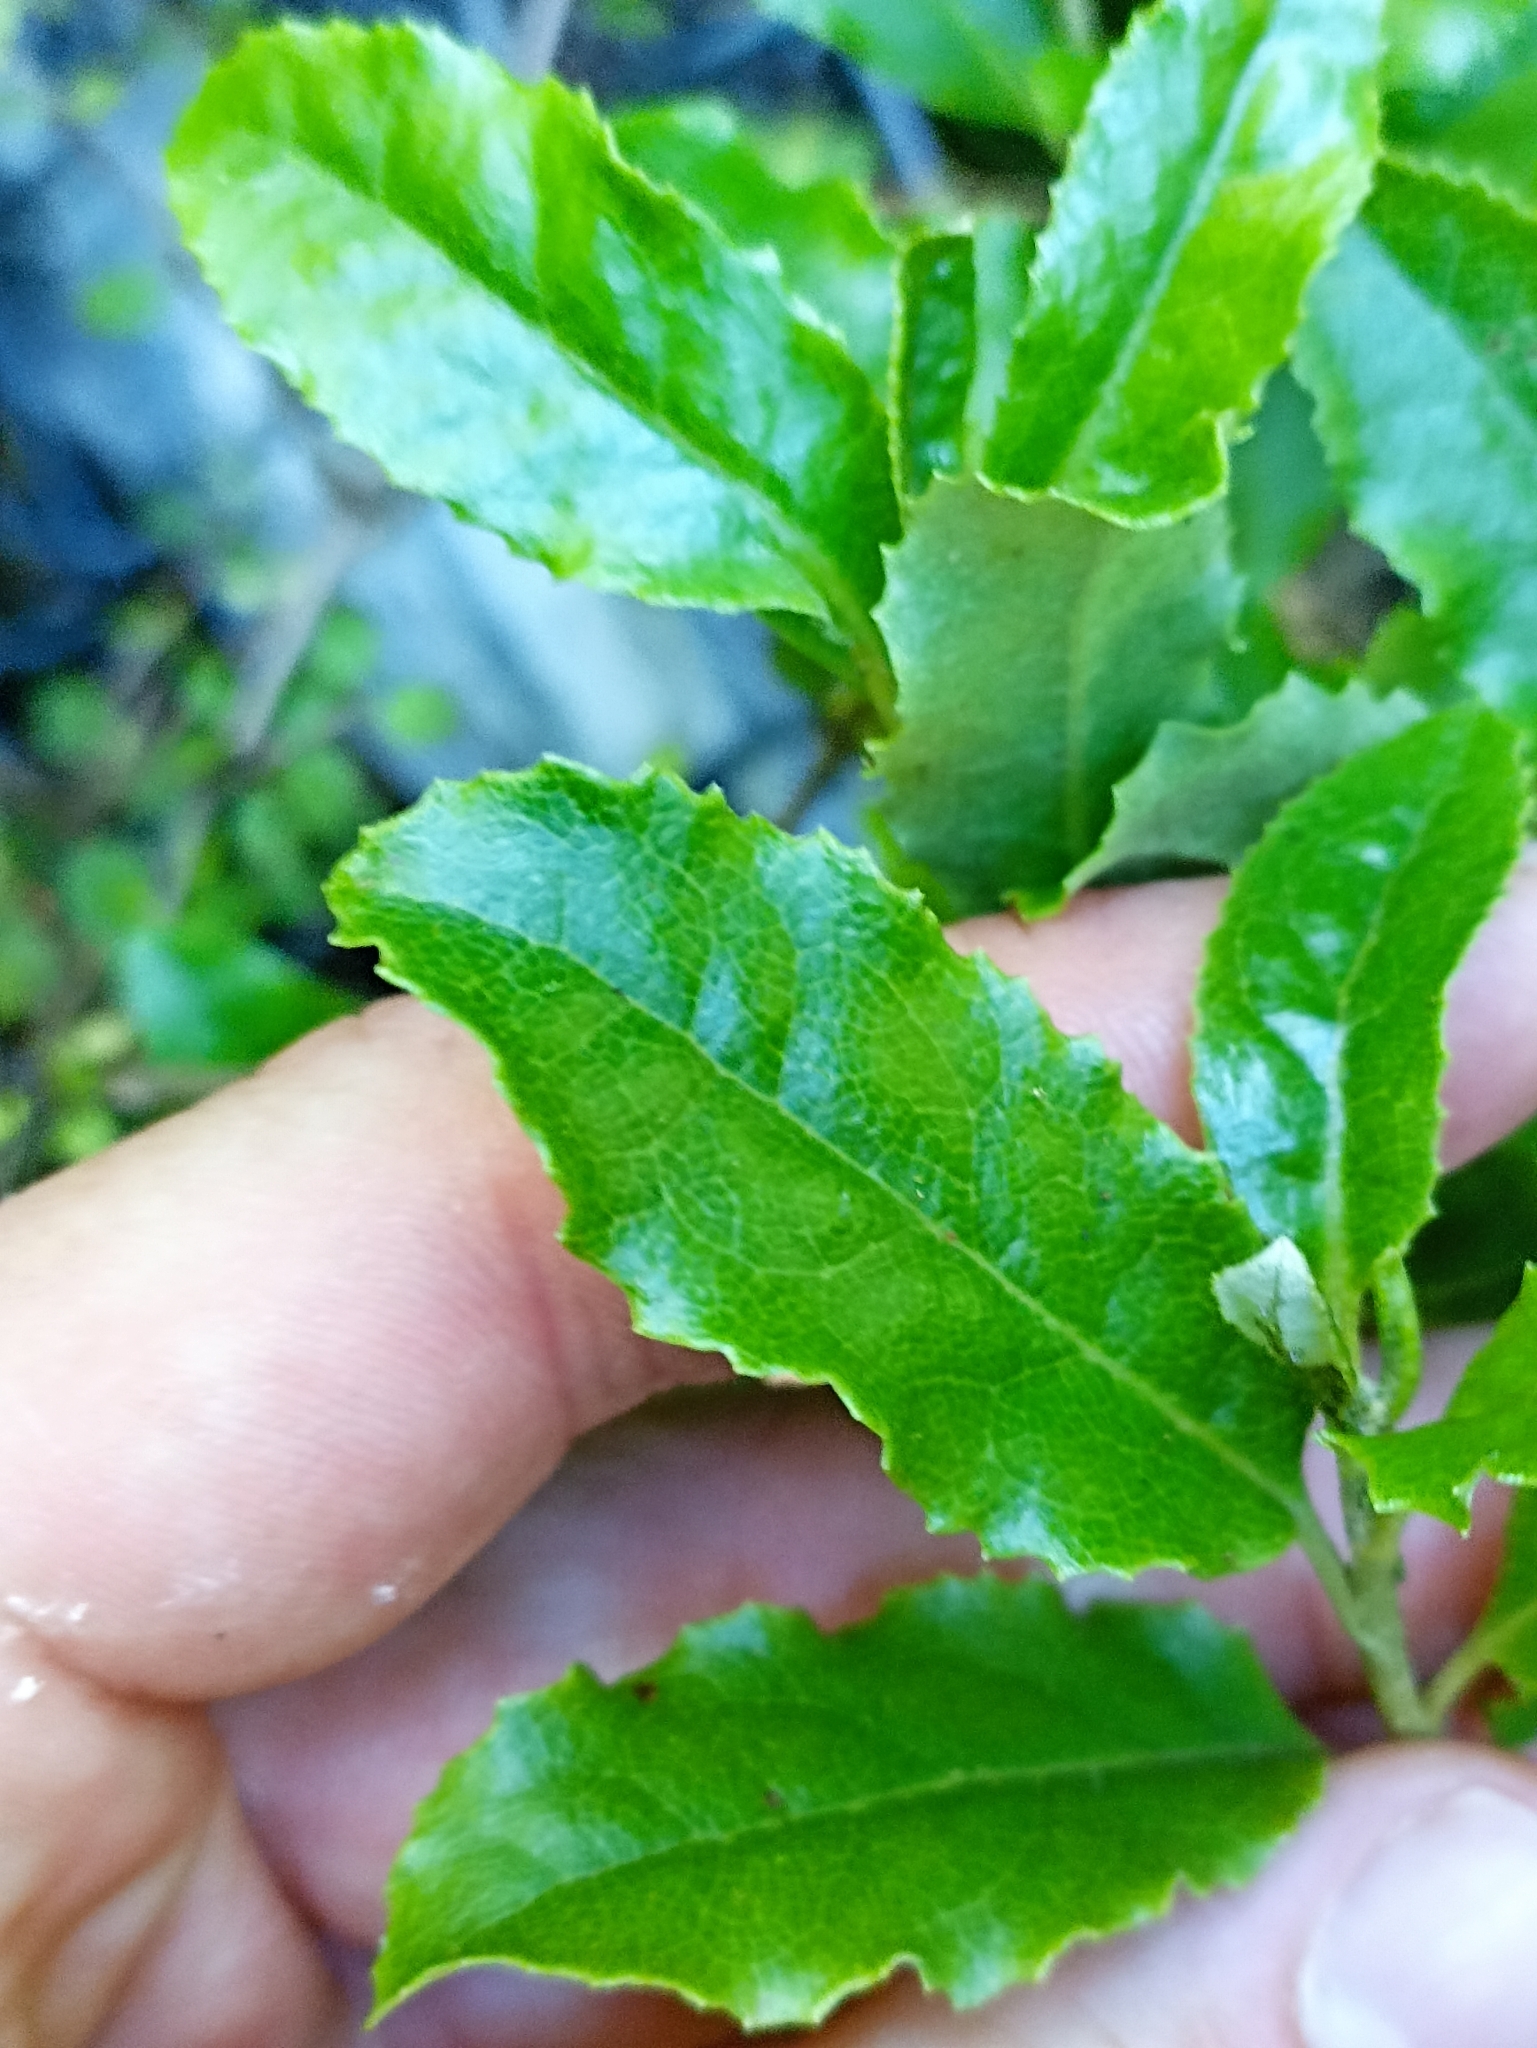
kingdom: Plantae
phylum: Tracheophyta
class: Magnoliopsida
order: Asterales
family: Asteraceae
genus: Brachyglottis
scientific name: Brachyglottis perdicioides
